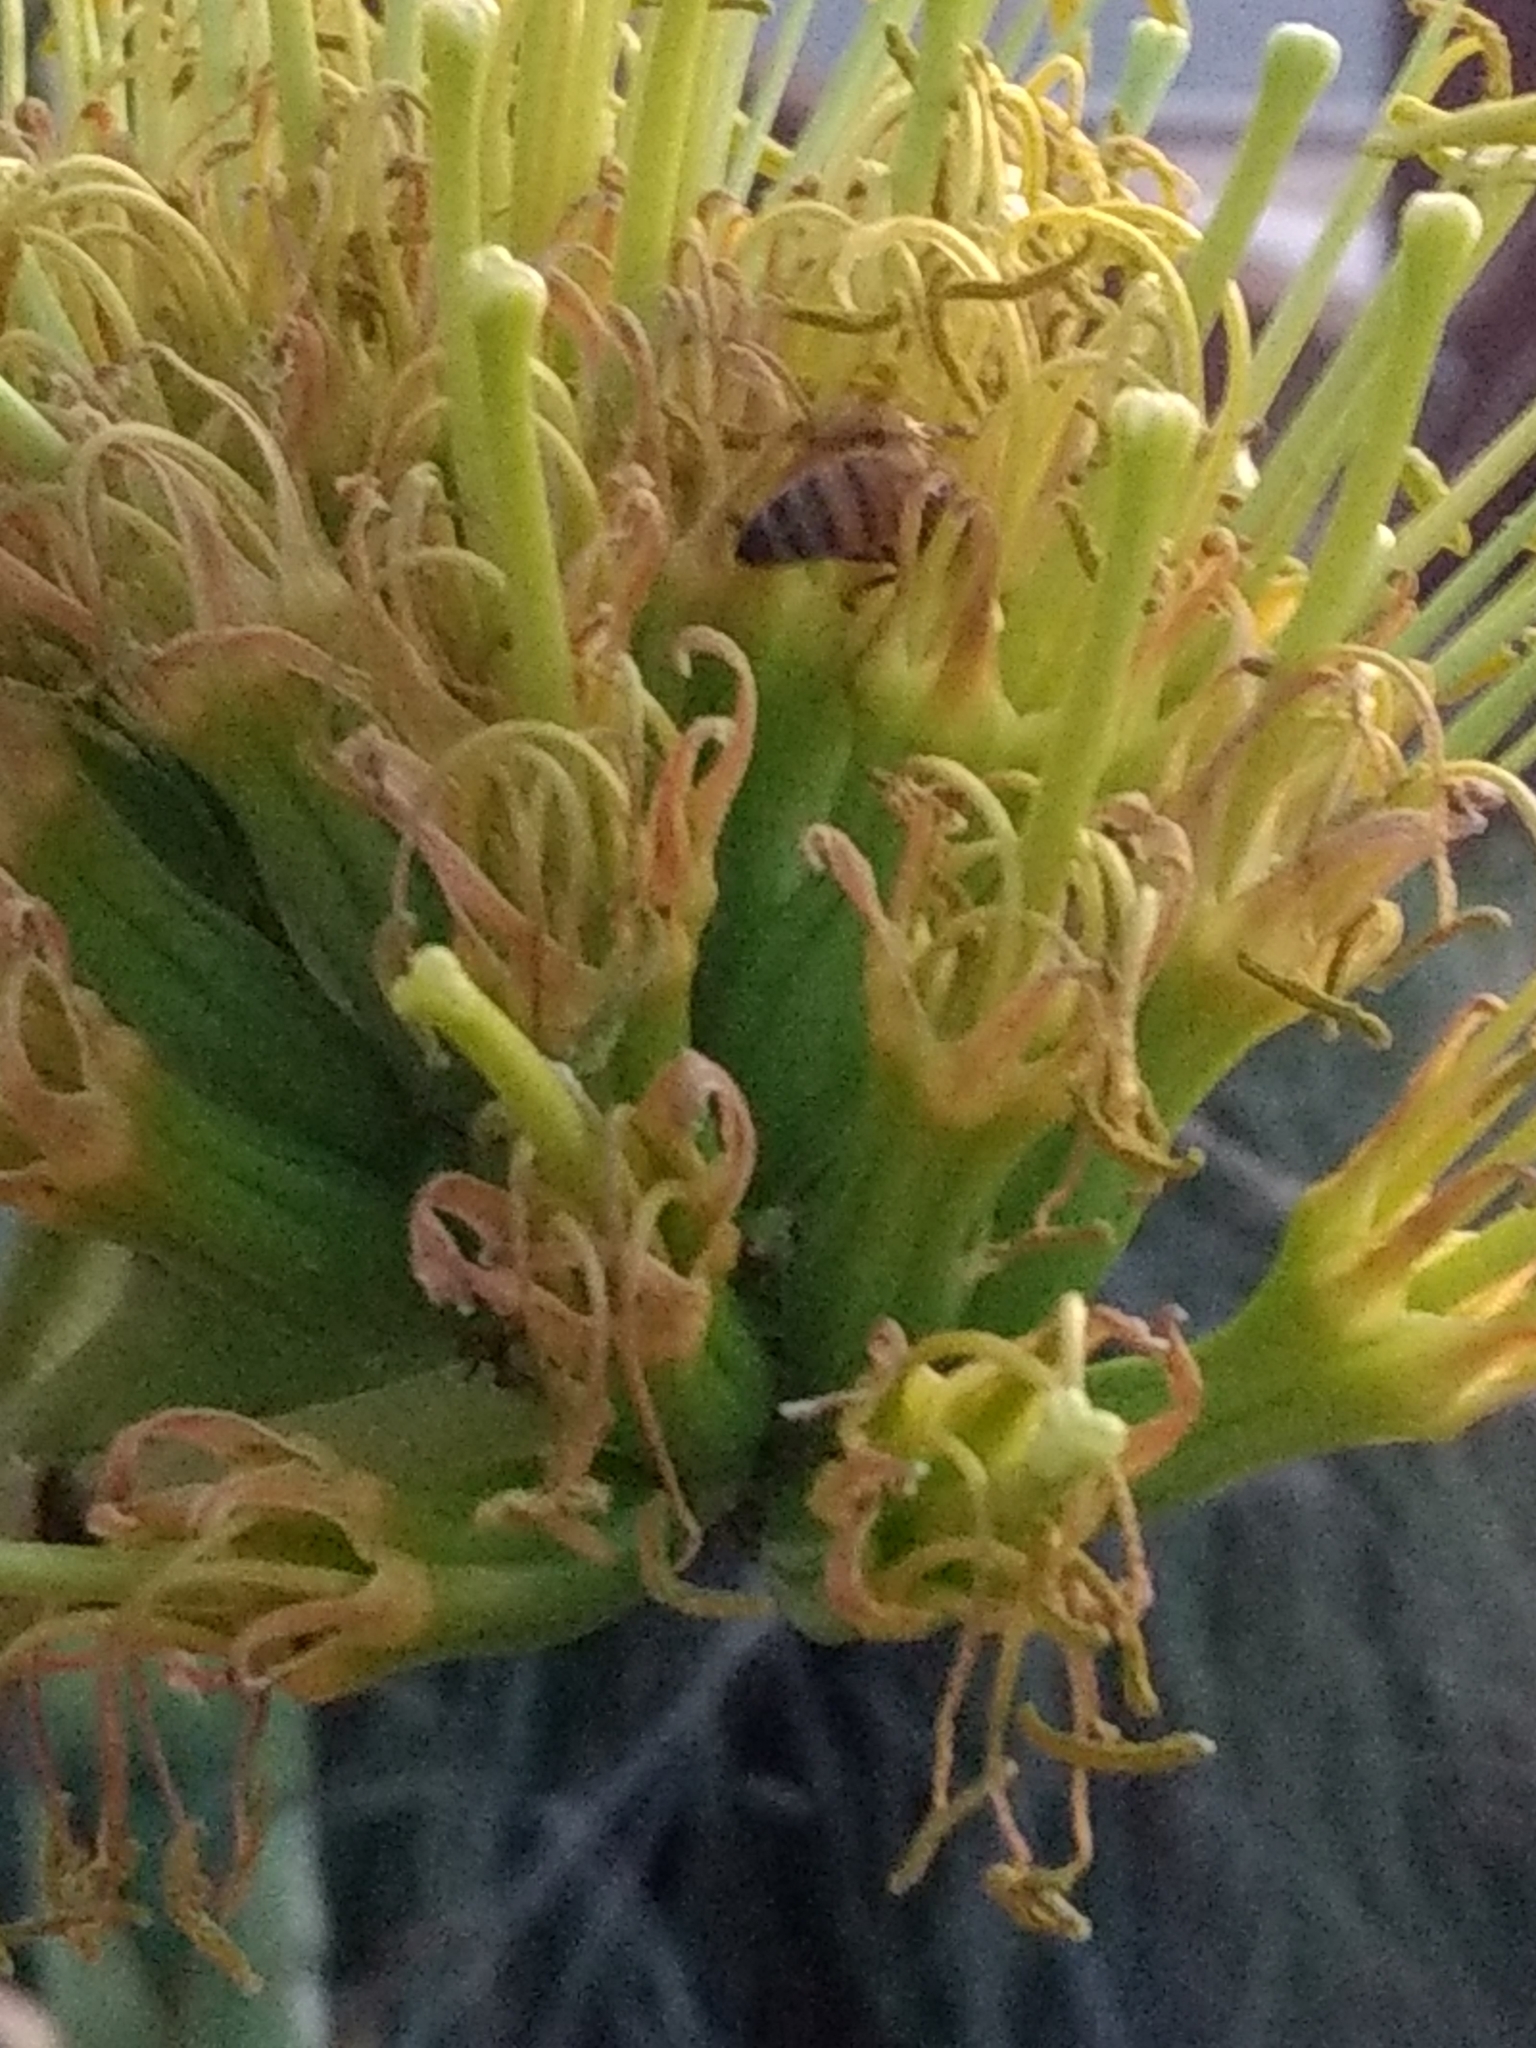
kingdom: Animalia
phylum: Arthropoda
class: Insecta
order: Hymenoptera
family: Apidae
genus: Apis
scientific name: Apis mellifera
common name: Honey bee
